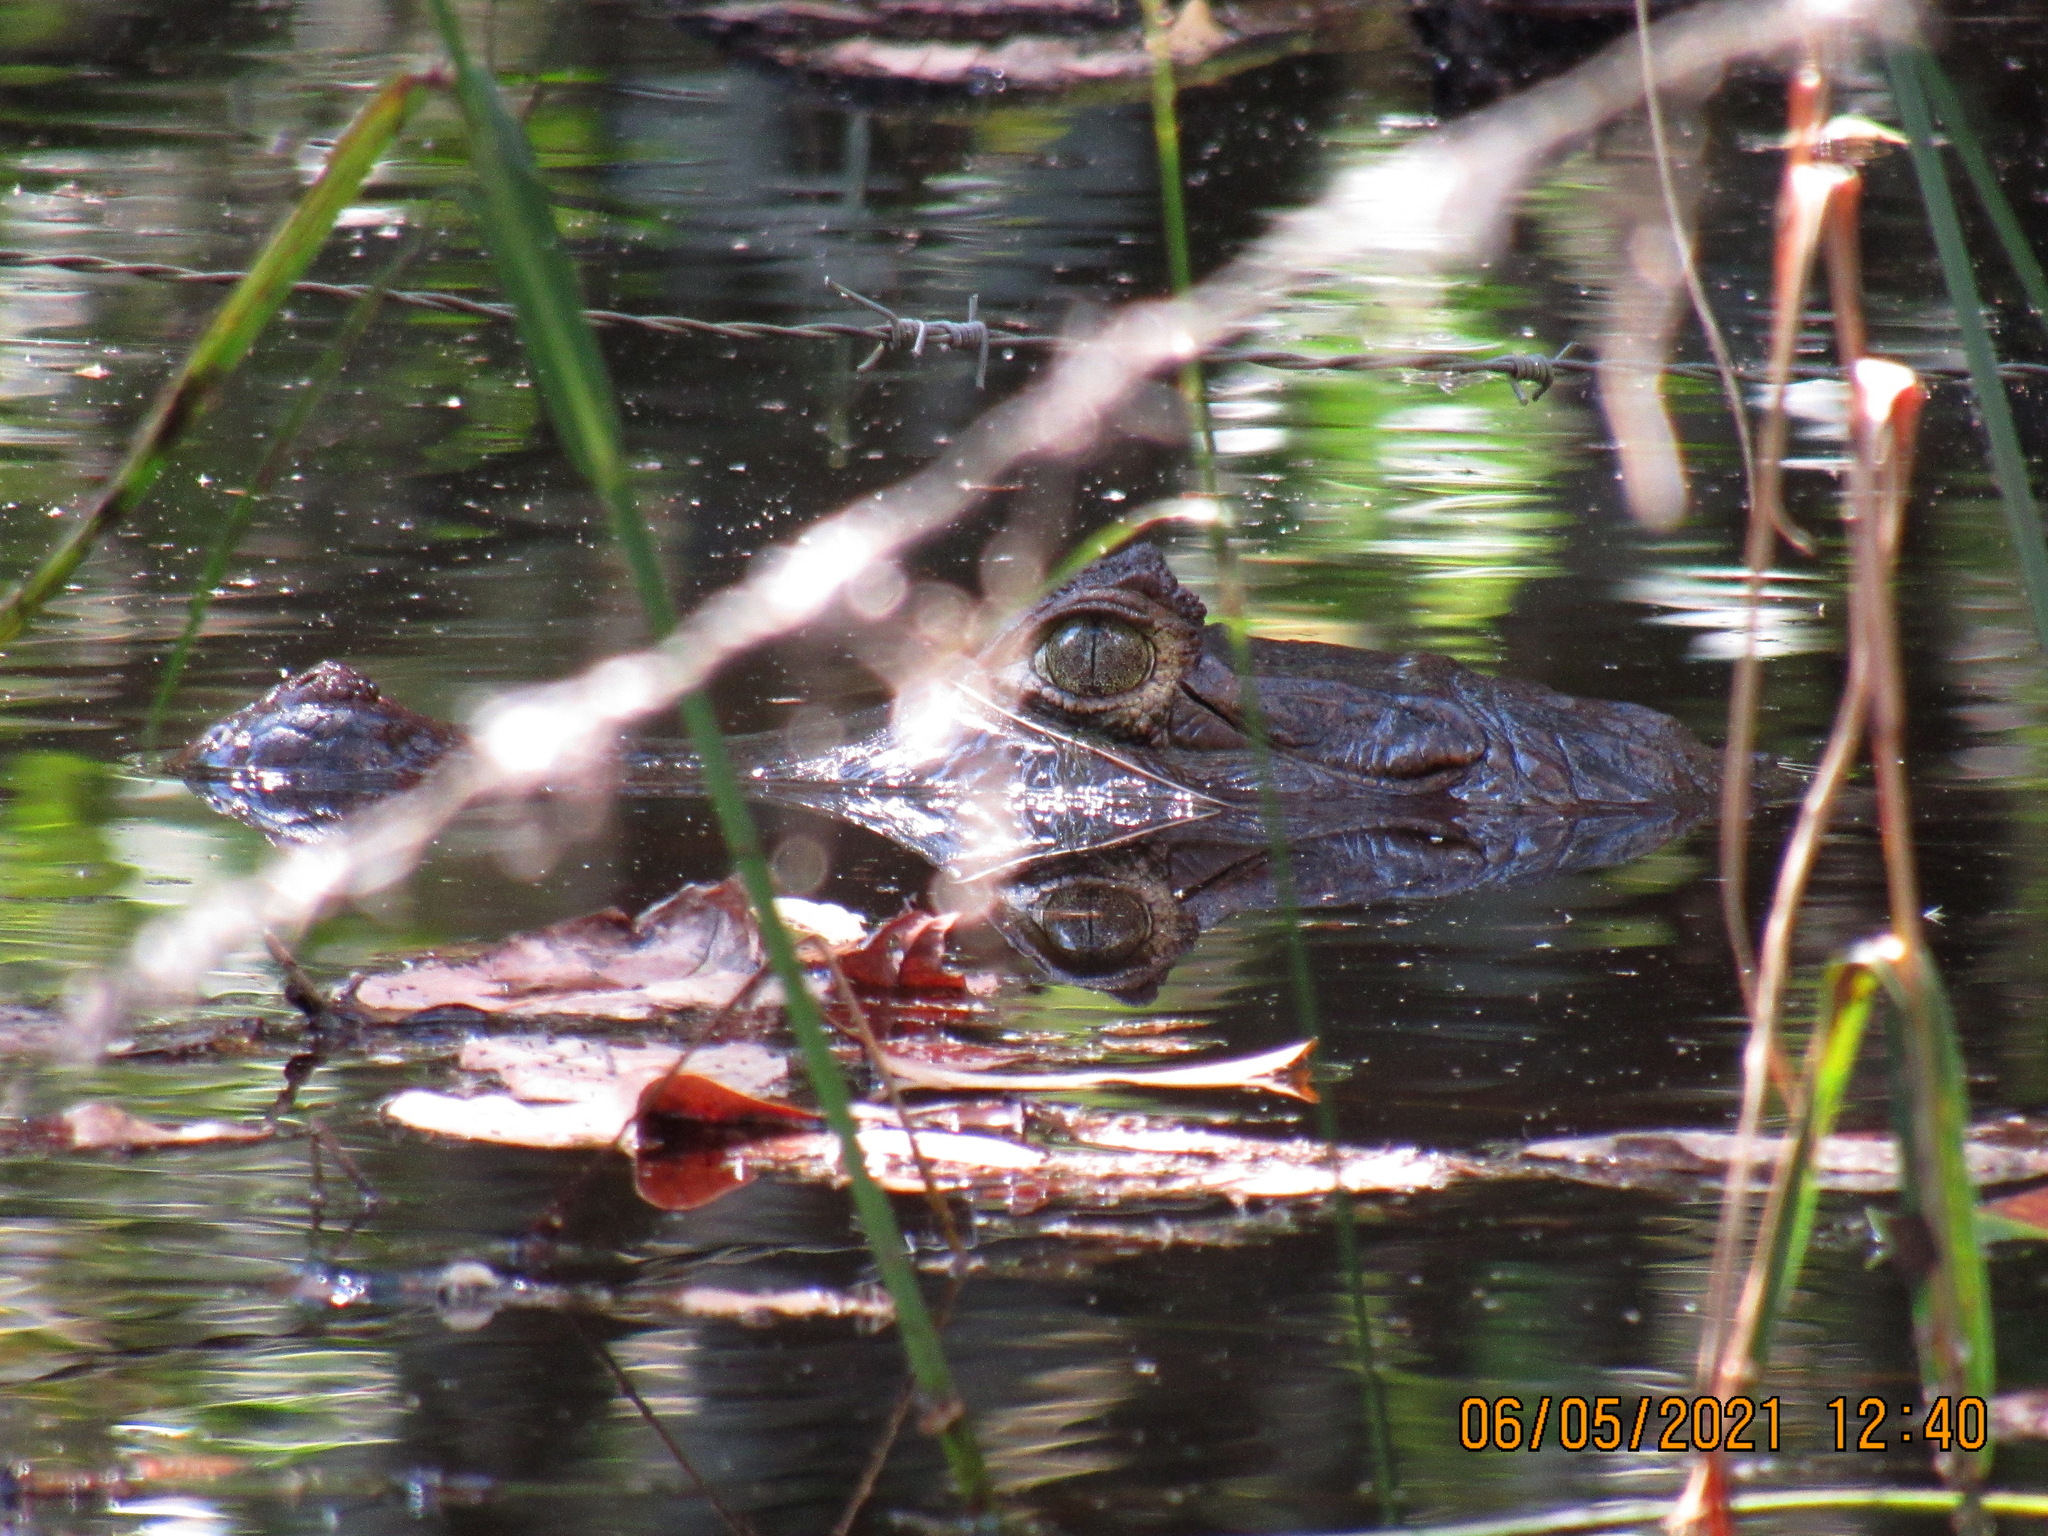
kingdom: Animalia
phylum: Chordata
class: Crocodylia
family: Alligatoridae
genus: Caiman
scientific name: Caiman crocodilus
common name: Common caiman
